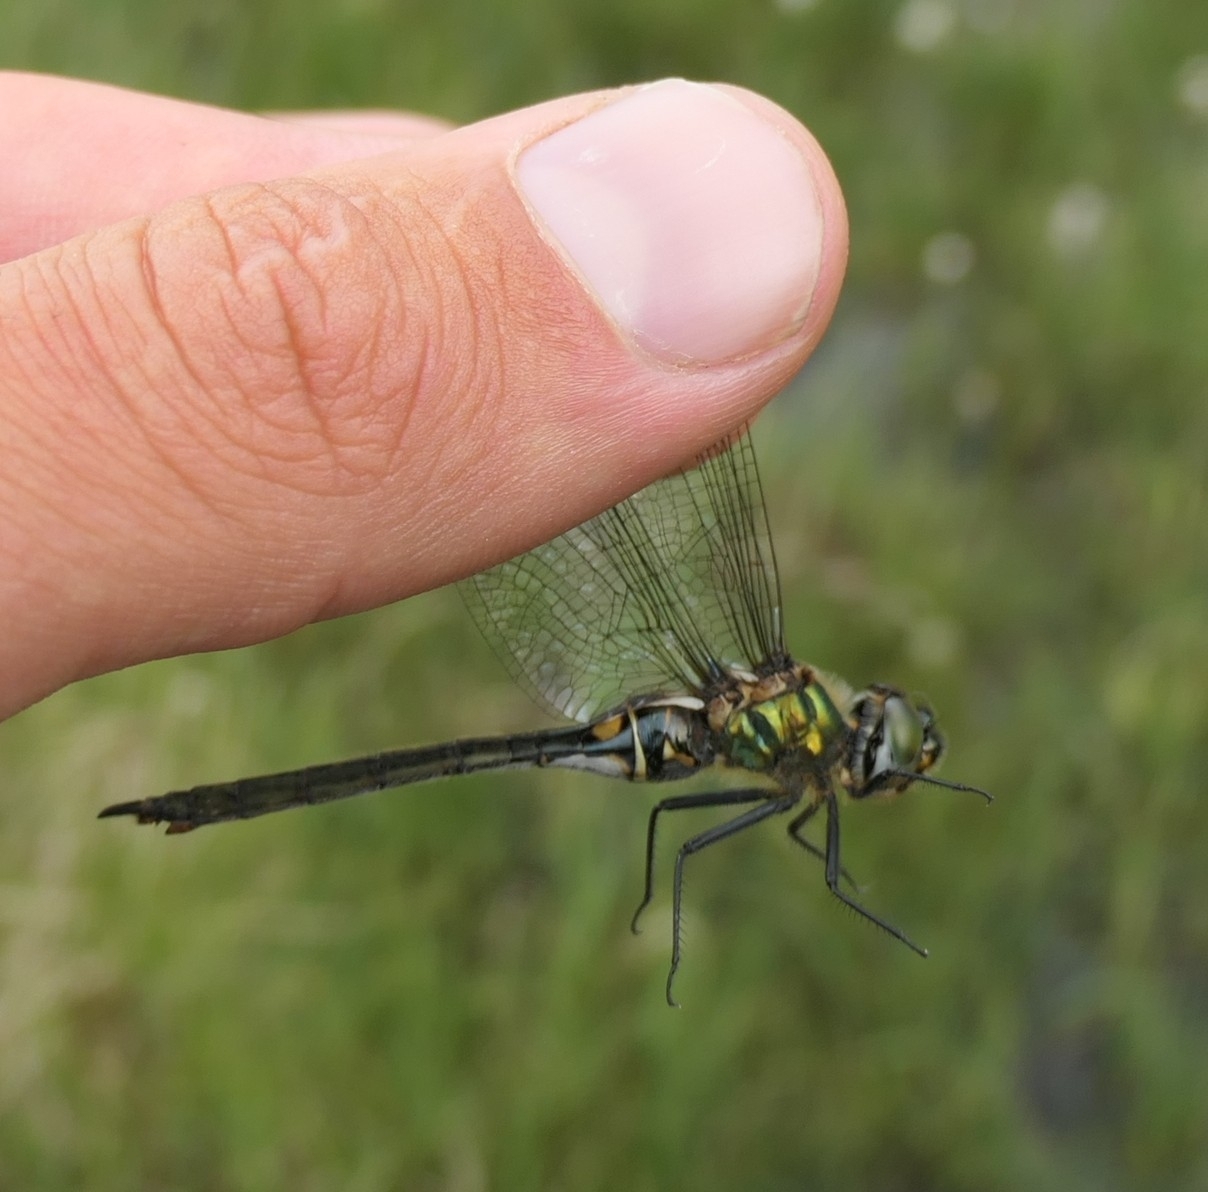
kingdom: Animalia
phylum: Arthropoda
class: Insecta
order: Odonata
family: Corduliidae
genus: Somatochlora
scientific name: Somatochlora arctica
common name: Northern emerald
